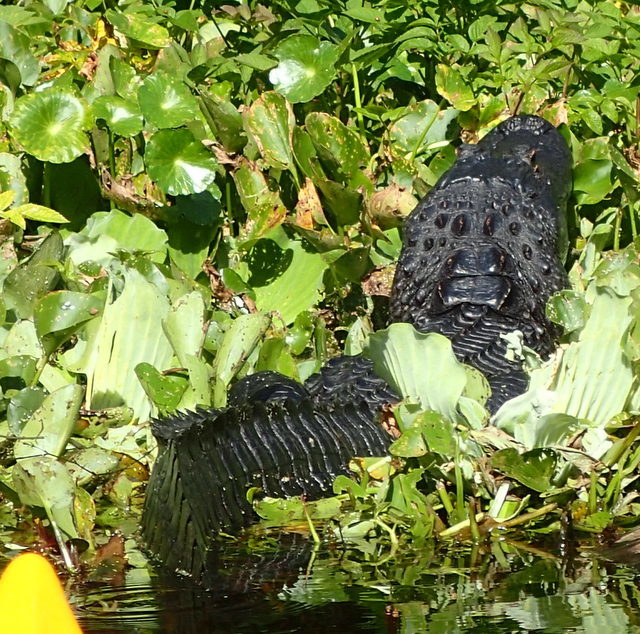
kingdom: Animalia
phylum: Chordata
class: Crocodylia
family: Alligatoridae
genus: Alligator
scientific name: Alligator mississippiensis
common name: American alligator
